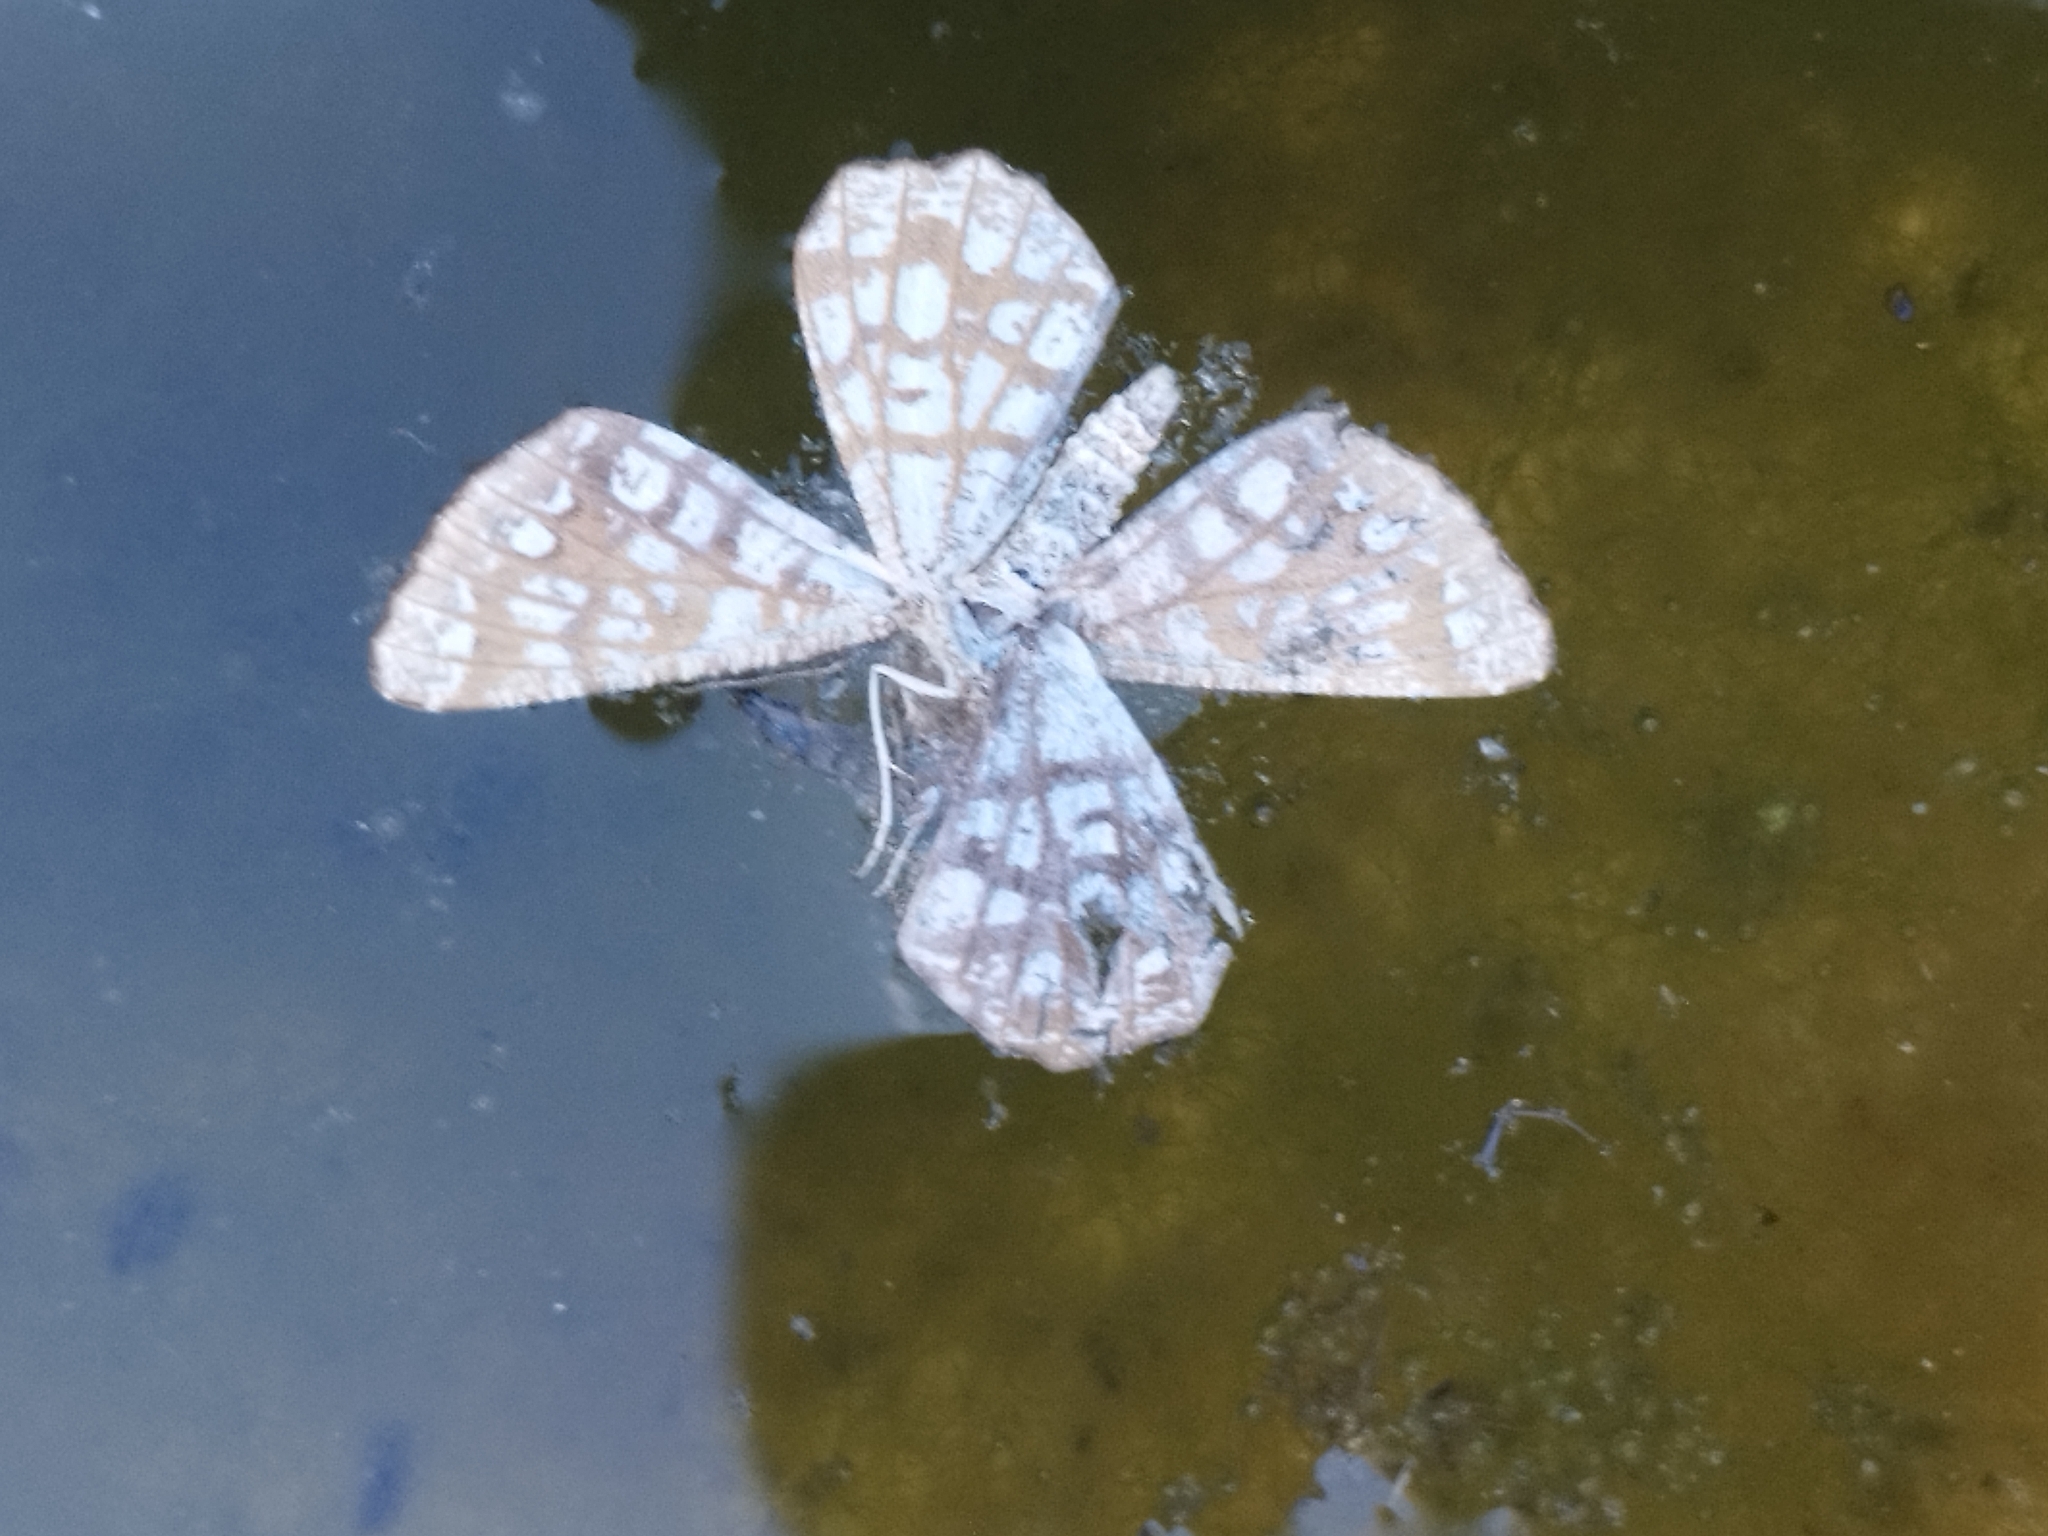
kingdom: Animalia
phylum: Arthropoda
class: Insecta
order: Lepidoptera
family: Geometridae
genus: Chiasmia
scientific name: Chiasmia clathrata
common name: Latticed heath
